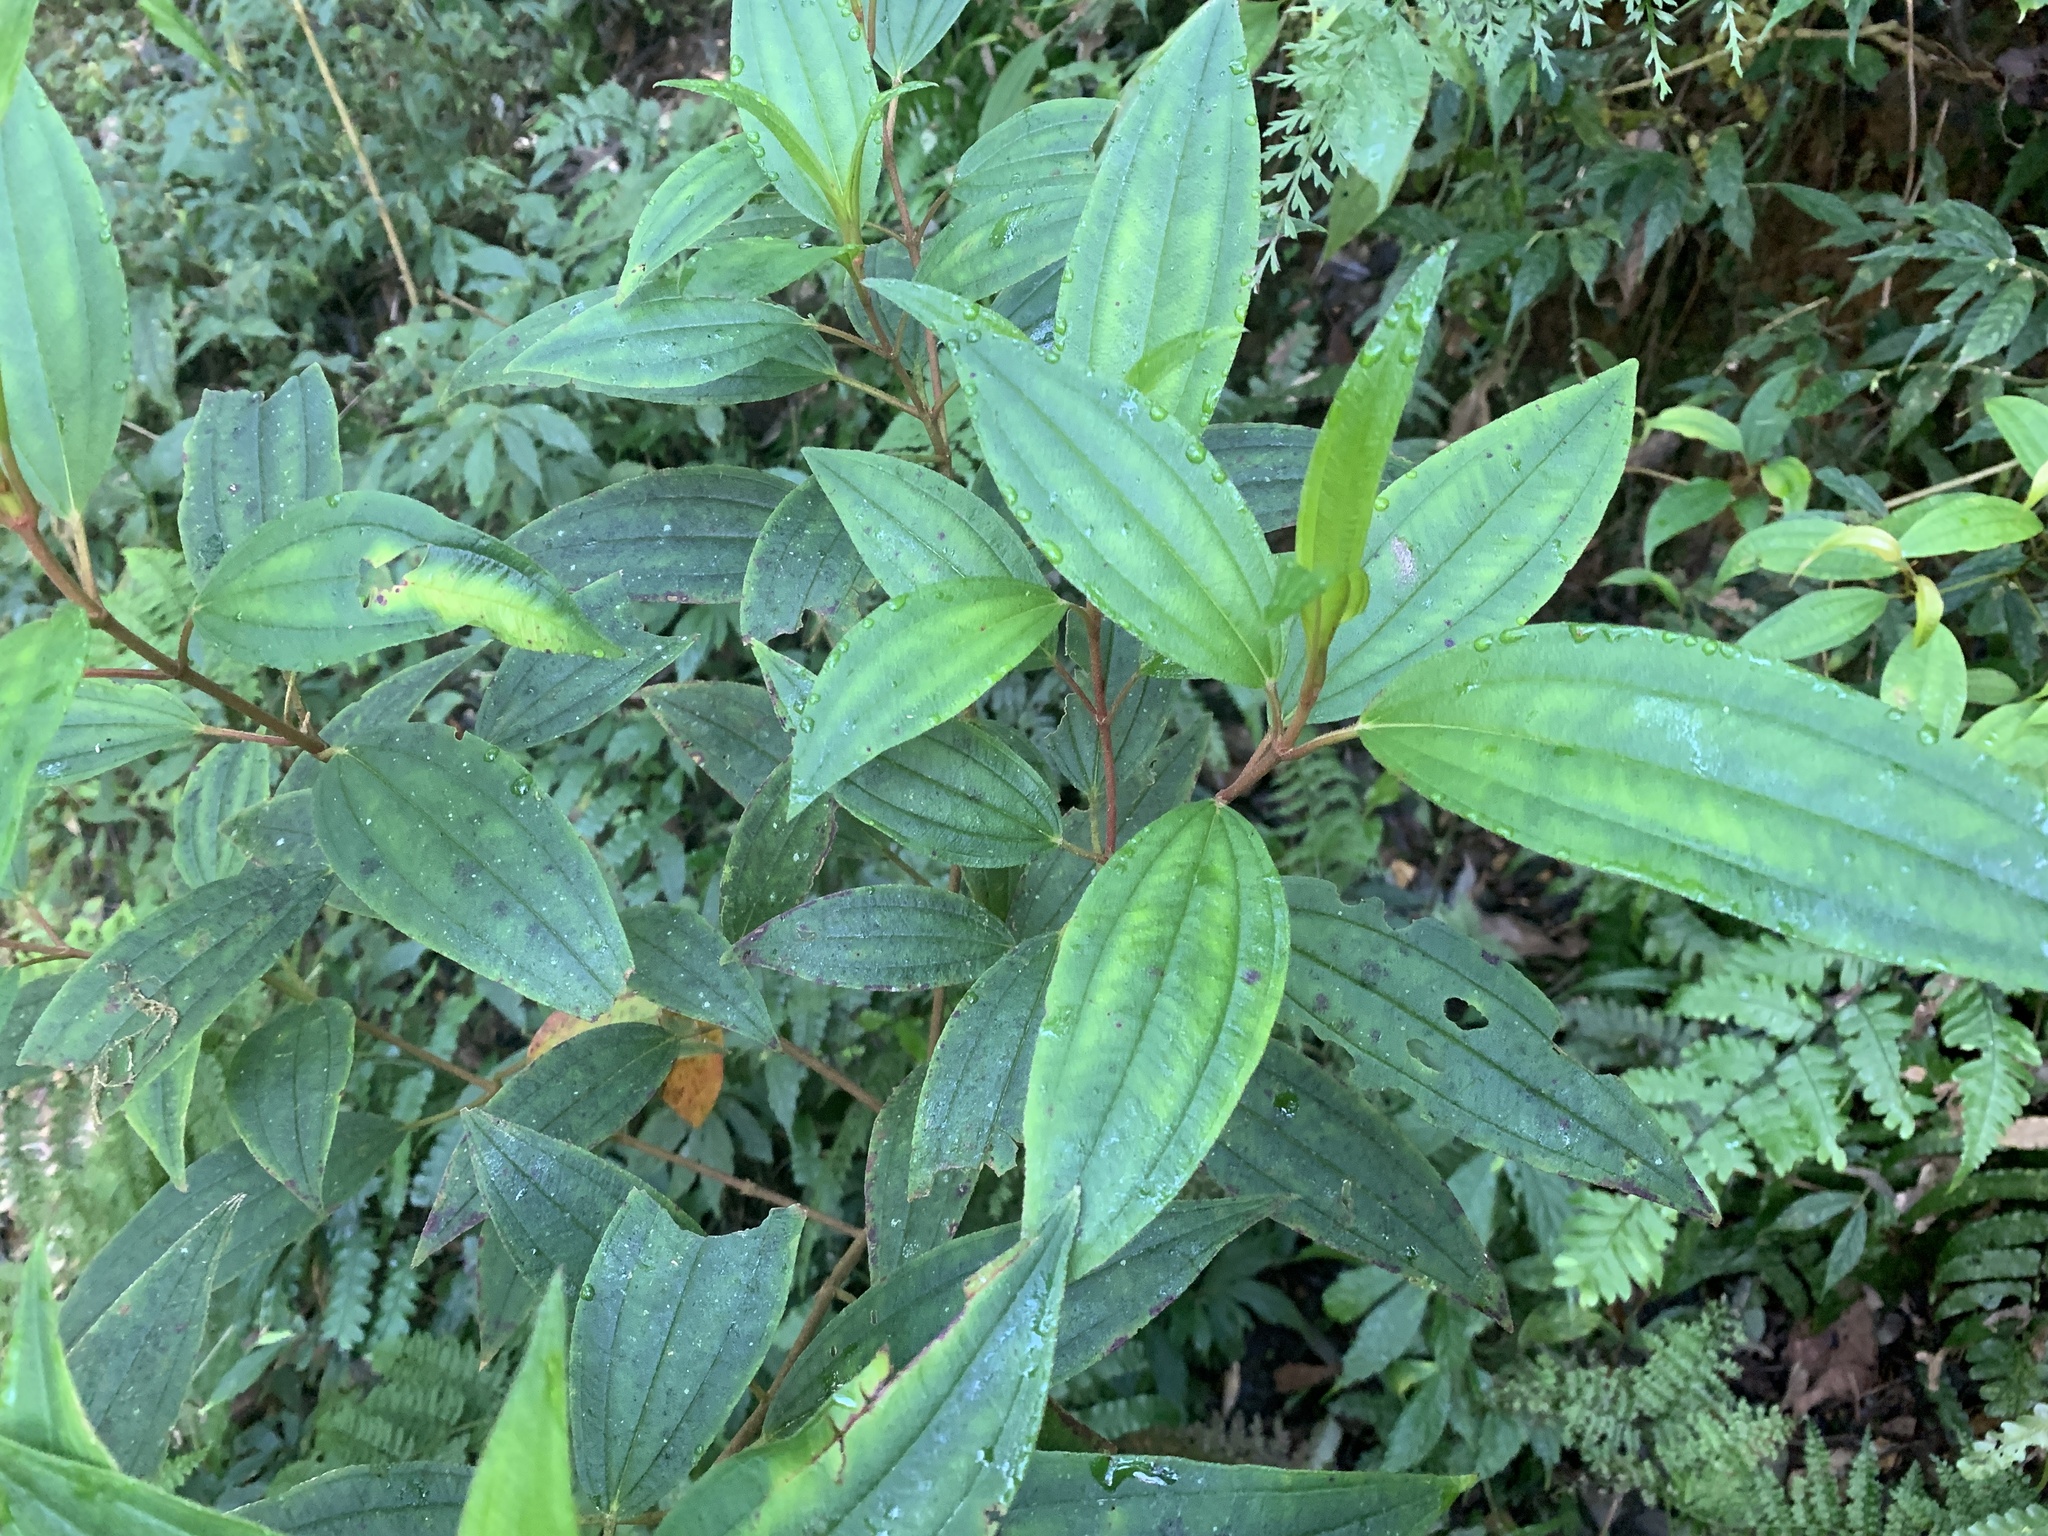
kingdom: Plantae
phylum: Tracheophyta
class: Magnoliopsida
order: Myrtales
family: Melastomataceae
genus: Melastoma
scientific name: Melastoma malabathricum
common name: Indian-rhododendron
